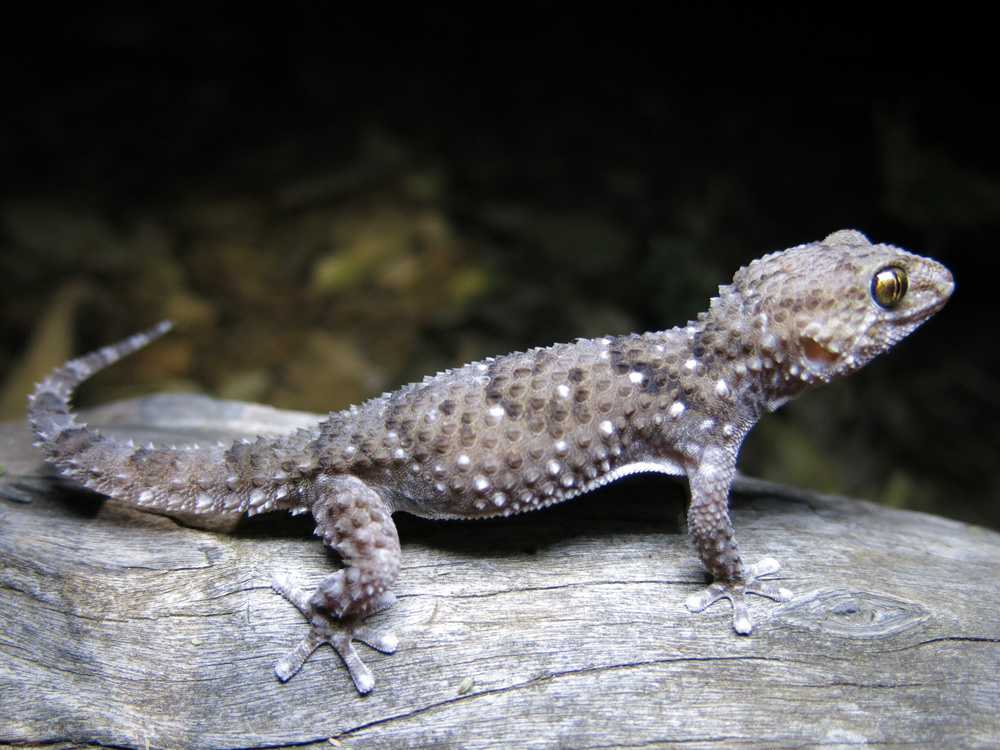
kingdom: Animalia
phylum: Chordata
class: Squamata
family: Gekkonidae
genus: Chondrodactylus
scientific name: Chondrodactylus turneri
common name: Turner’s gecko
